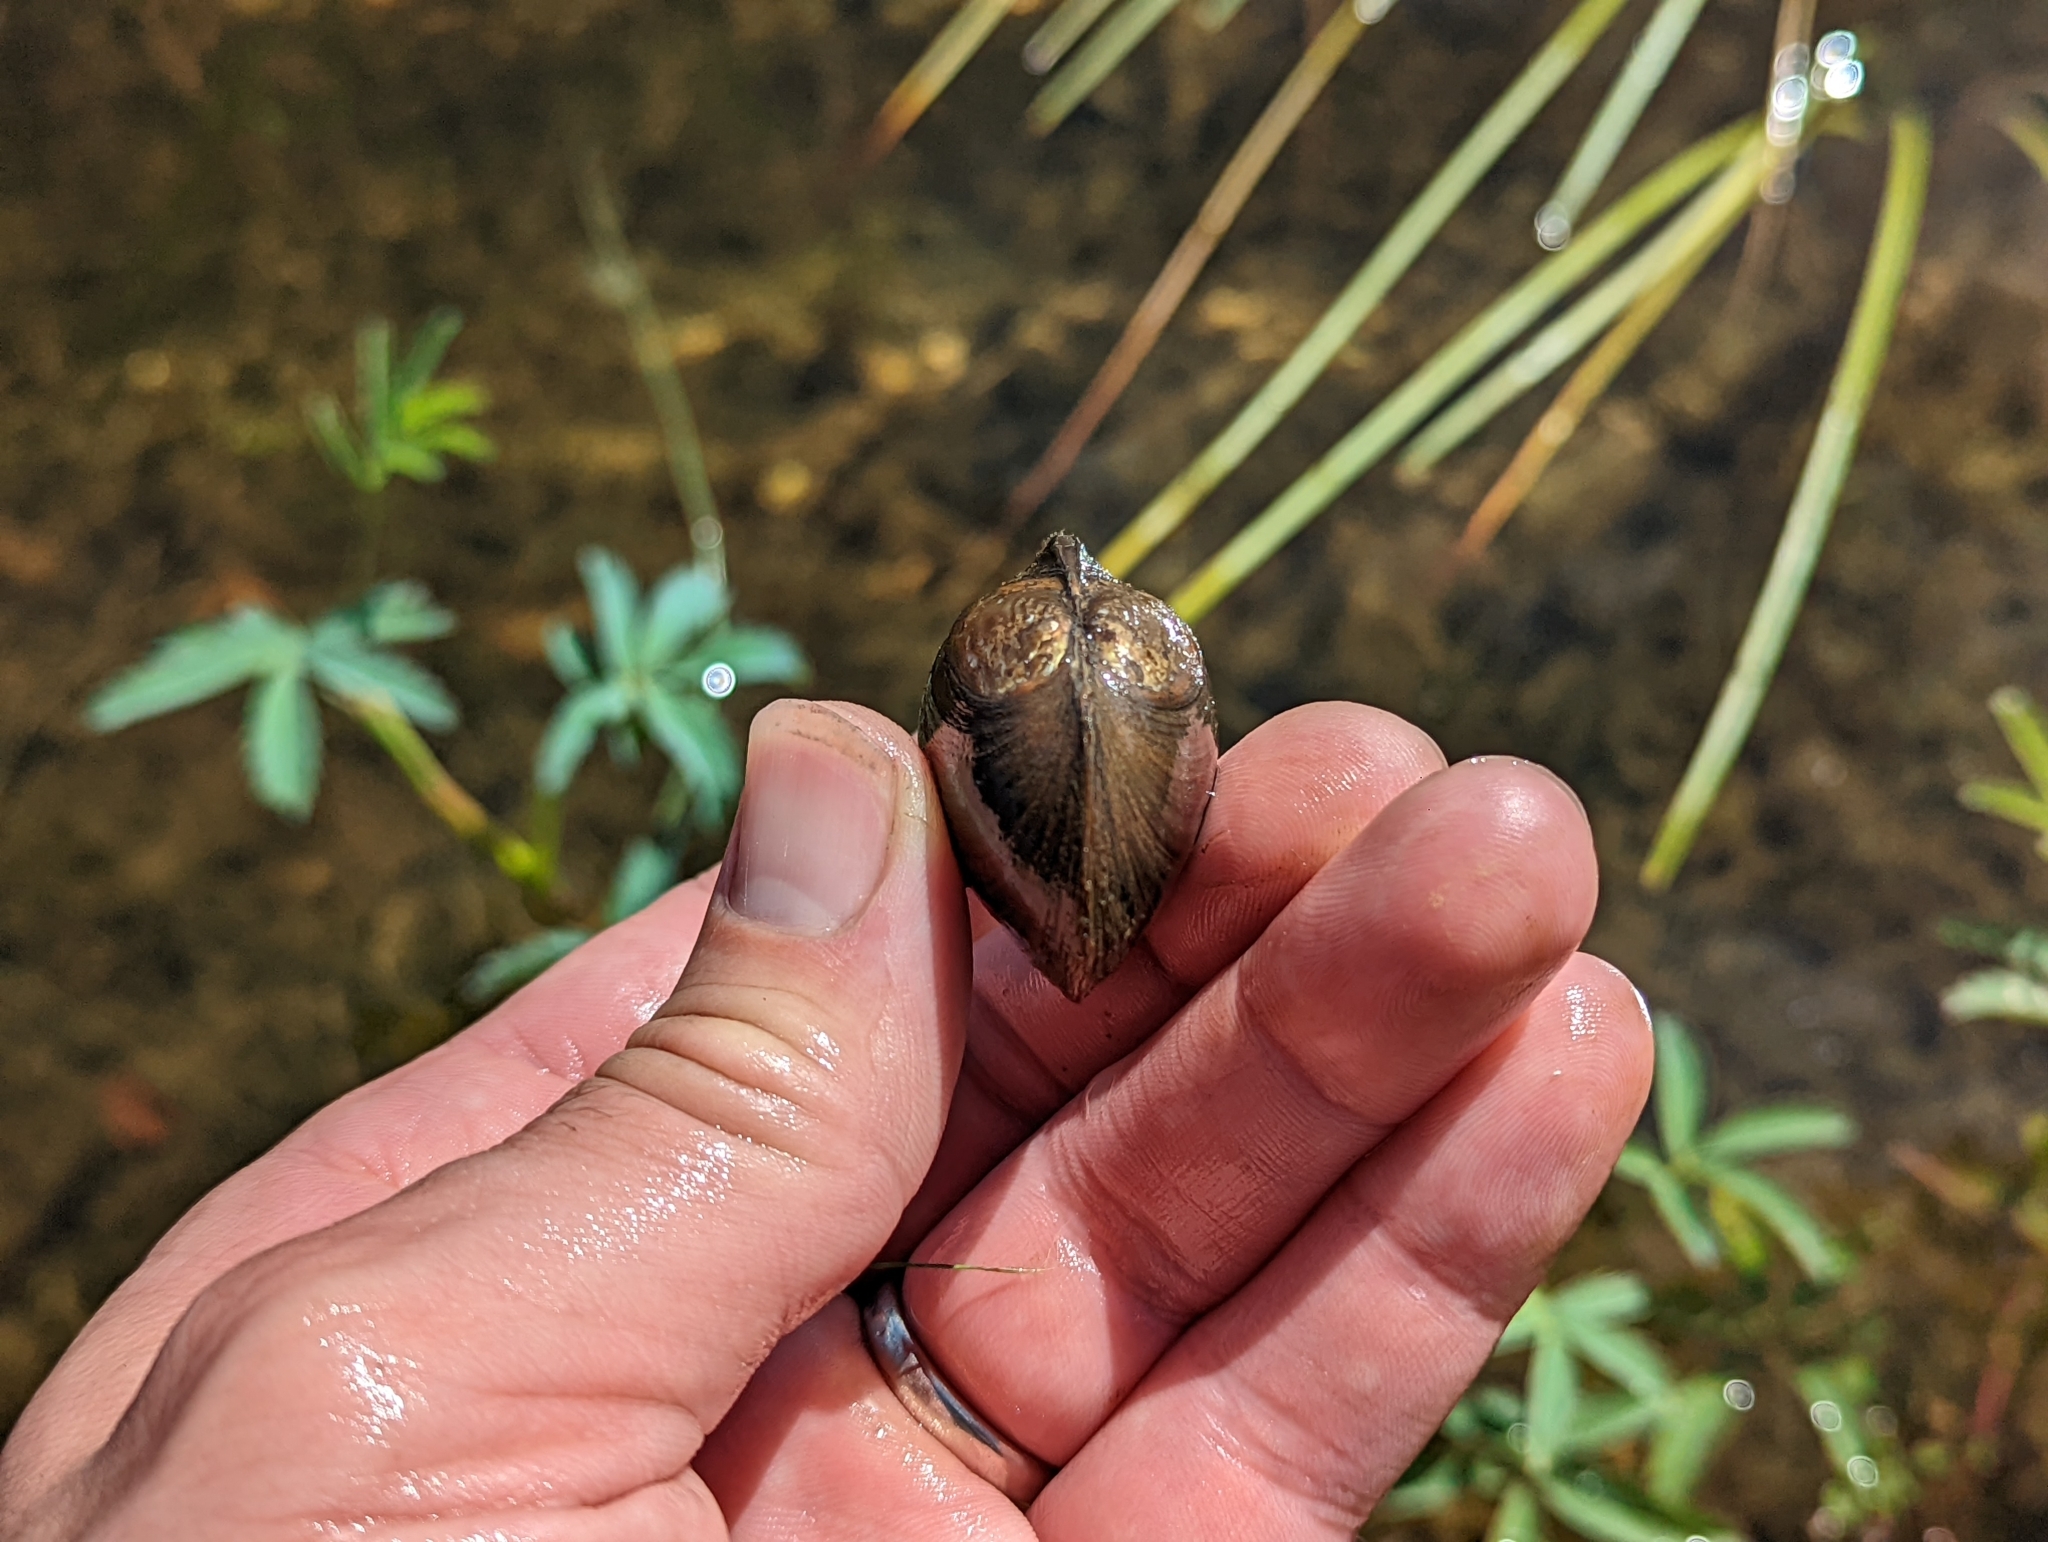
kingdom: Animalia
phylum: Mollusca
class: Bivalvia
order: Unionida
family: Unionidae
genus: Beringiana
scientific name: Beringiana beringiana
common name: Yukon floater
